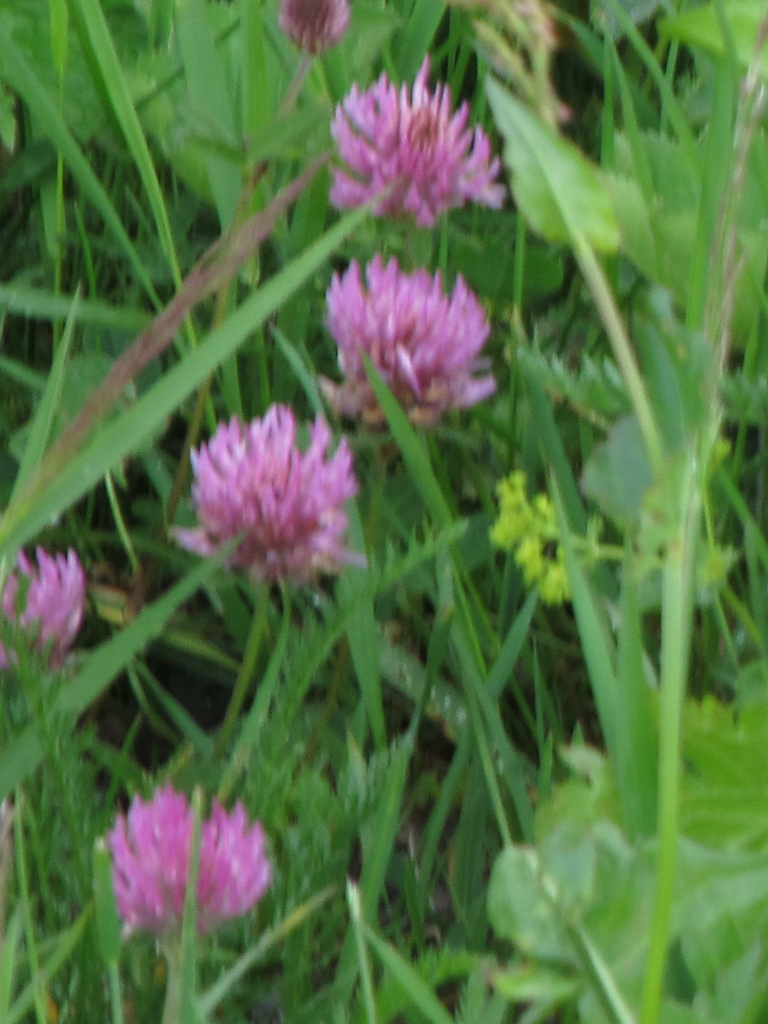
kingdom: Plantae
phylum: Tracheophyta
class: Magnoliopsida
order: Fabales
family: Fabaceae
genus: Trifolium
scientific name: Trifolium pratense
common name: Red clover
